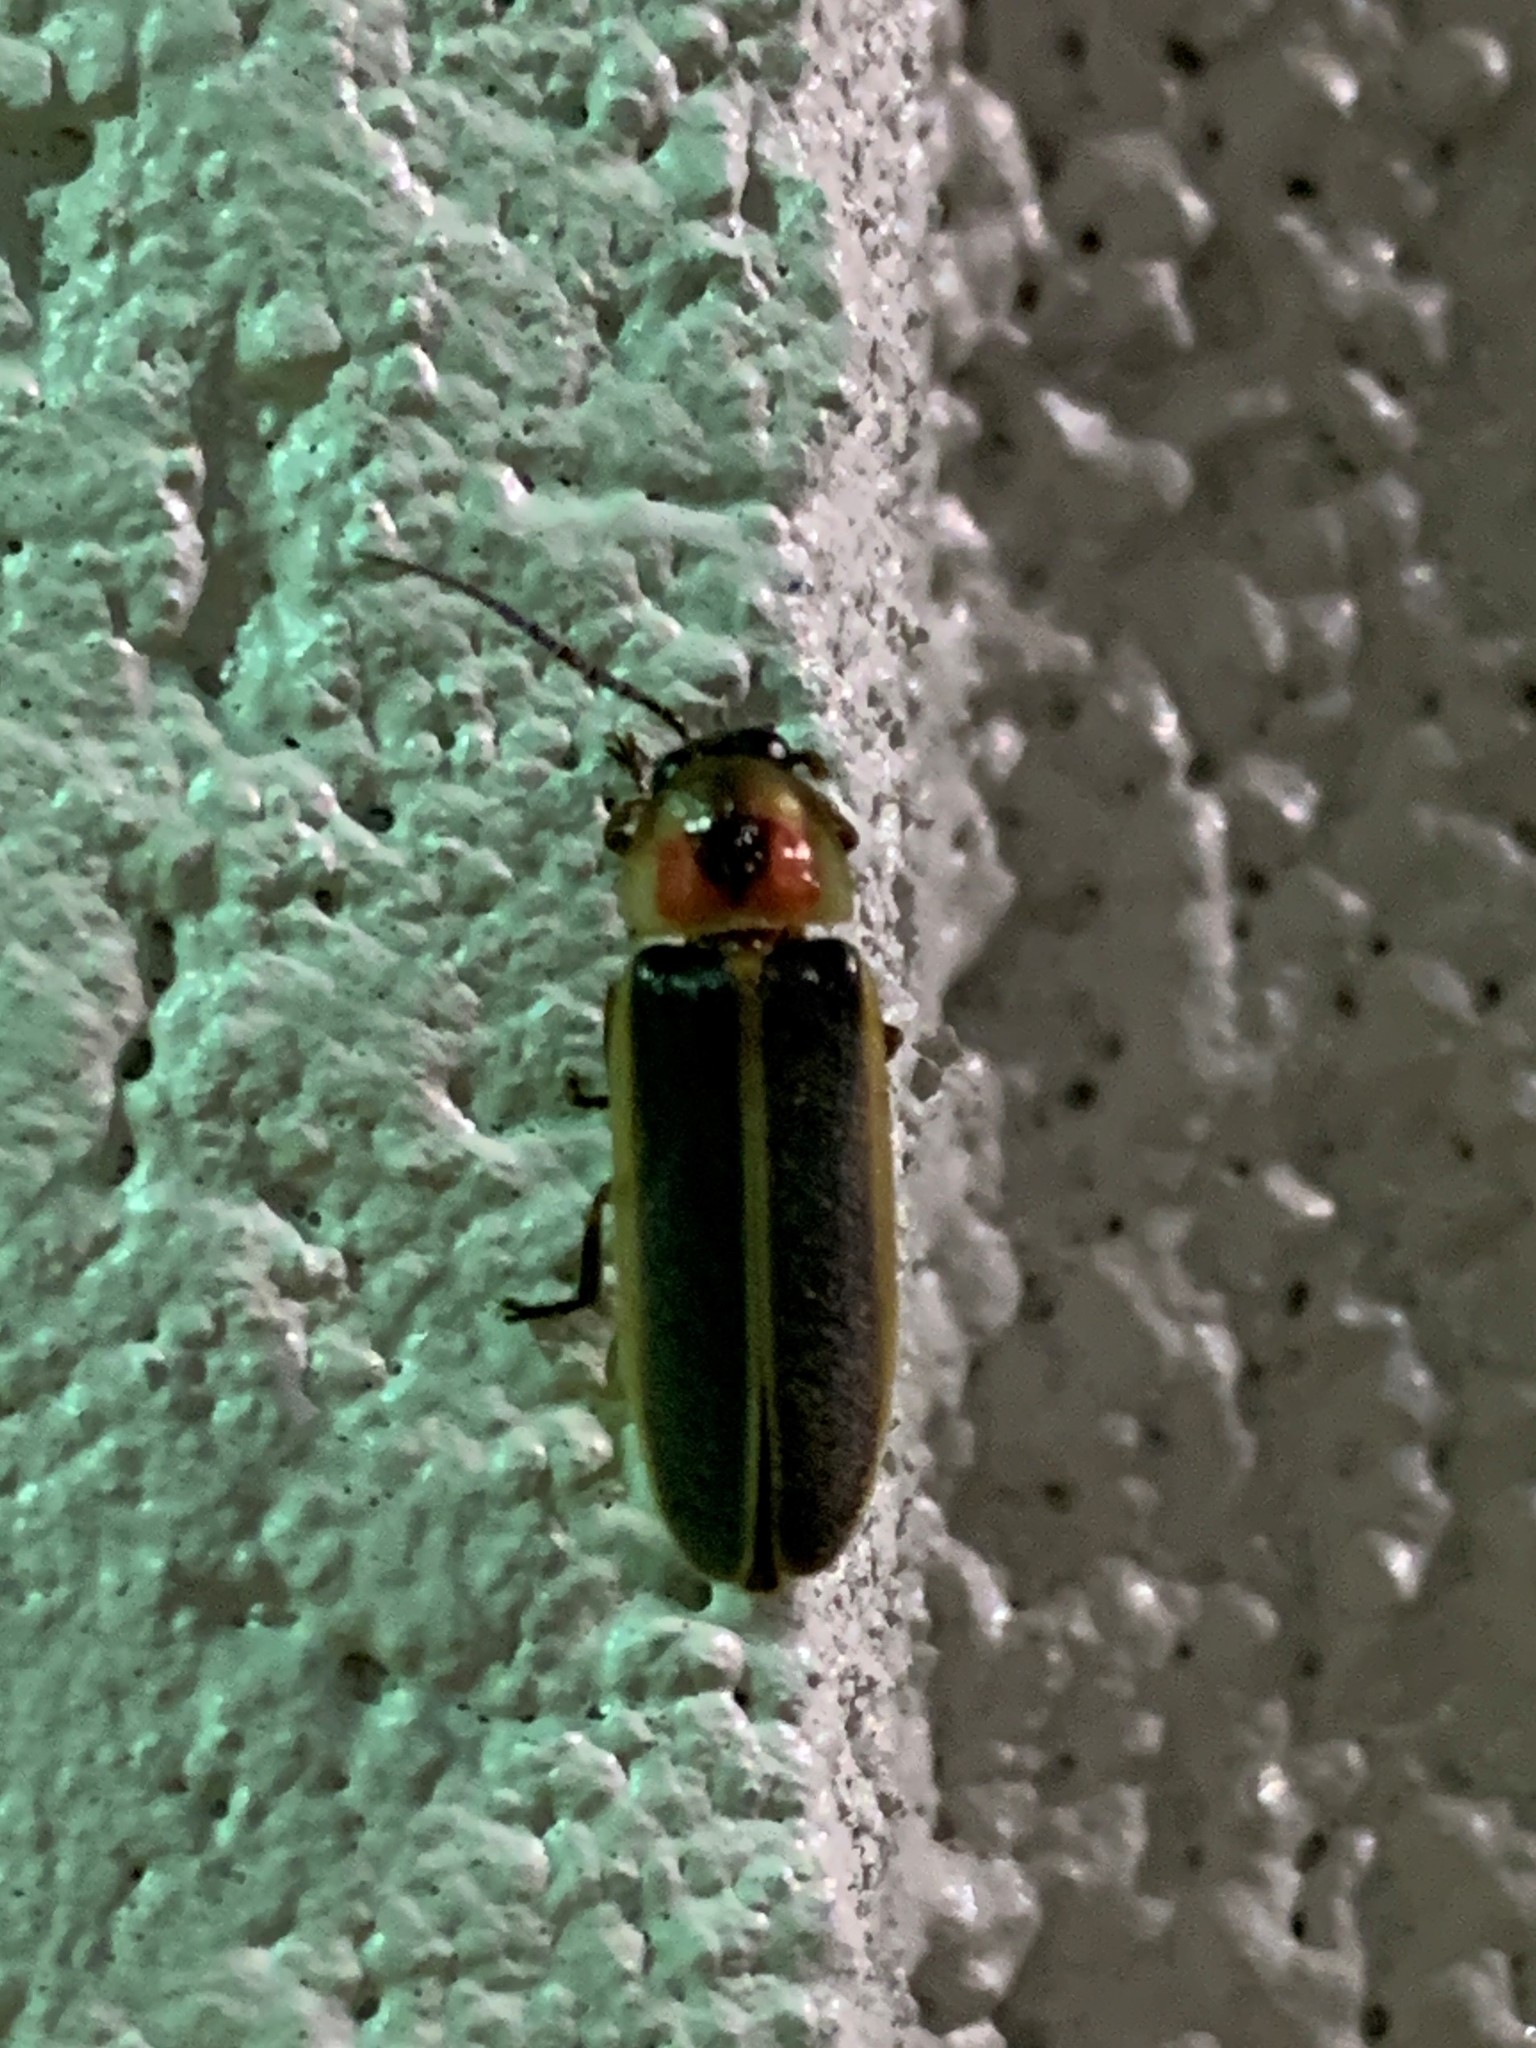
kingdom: Animalia
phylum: Arthropoda
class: Insecta
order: Coleoptera
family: Lampyridae
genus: Photinus
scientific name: Photinus pyralis
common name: Big dipper firefly
